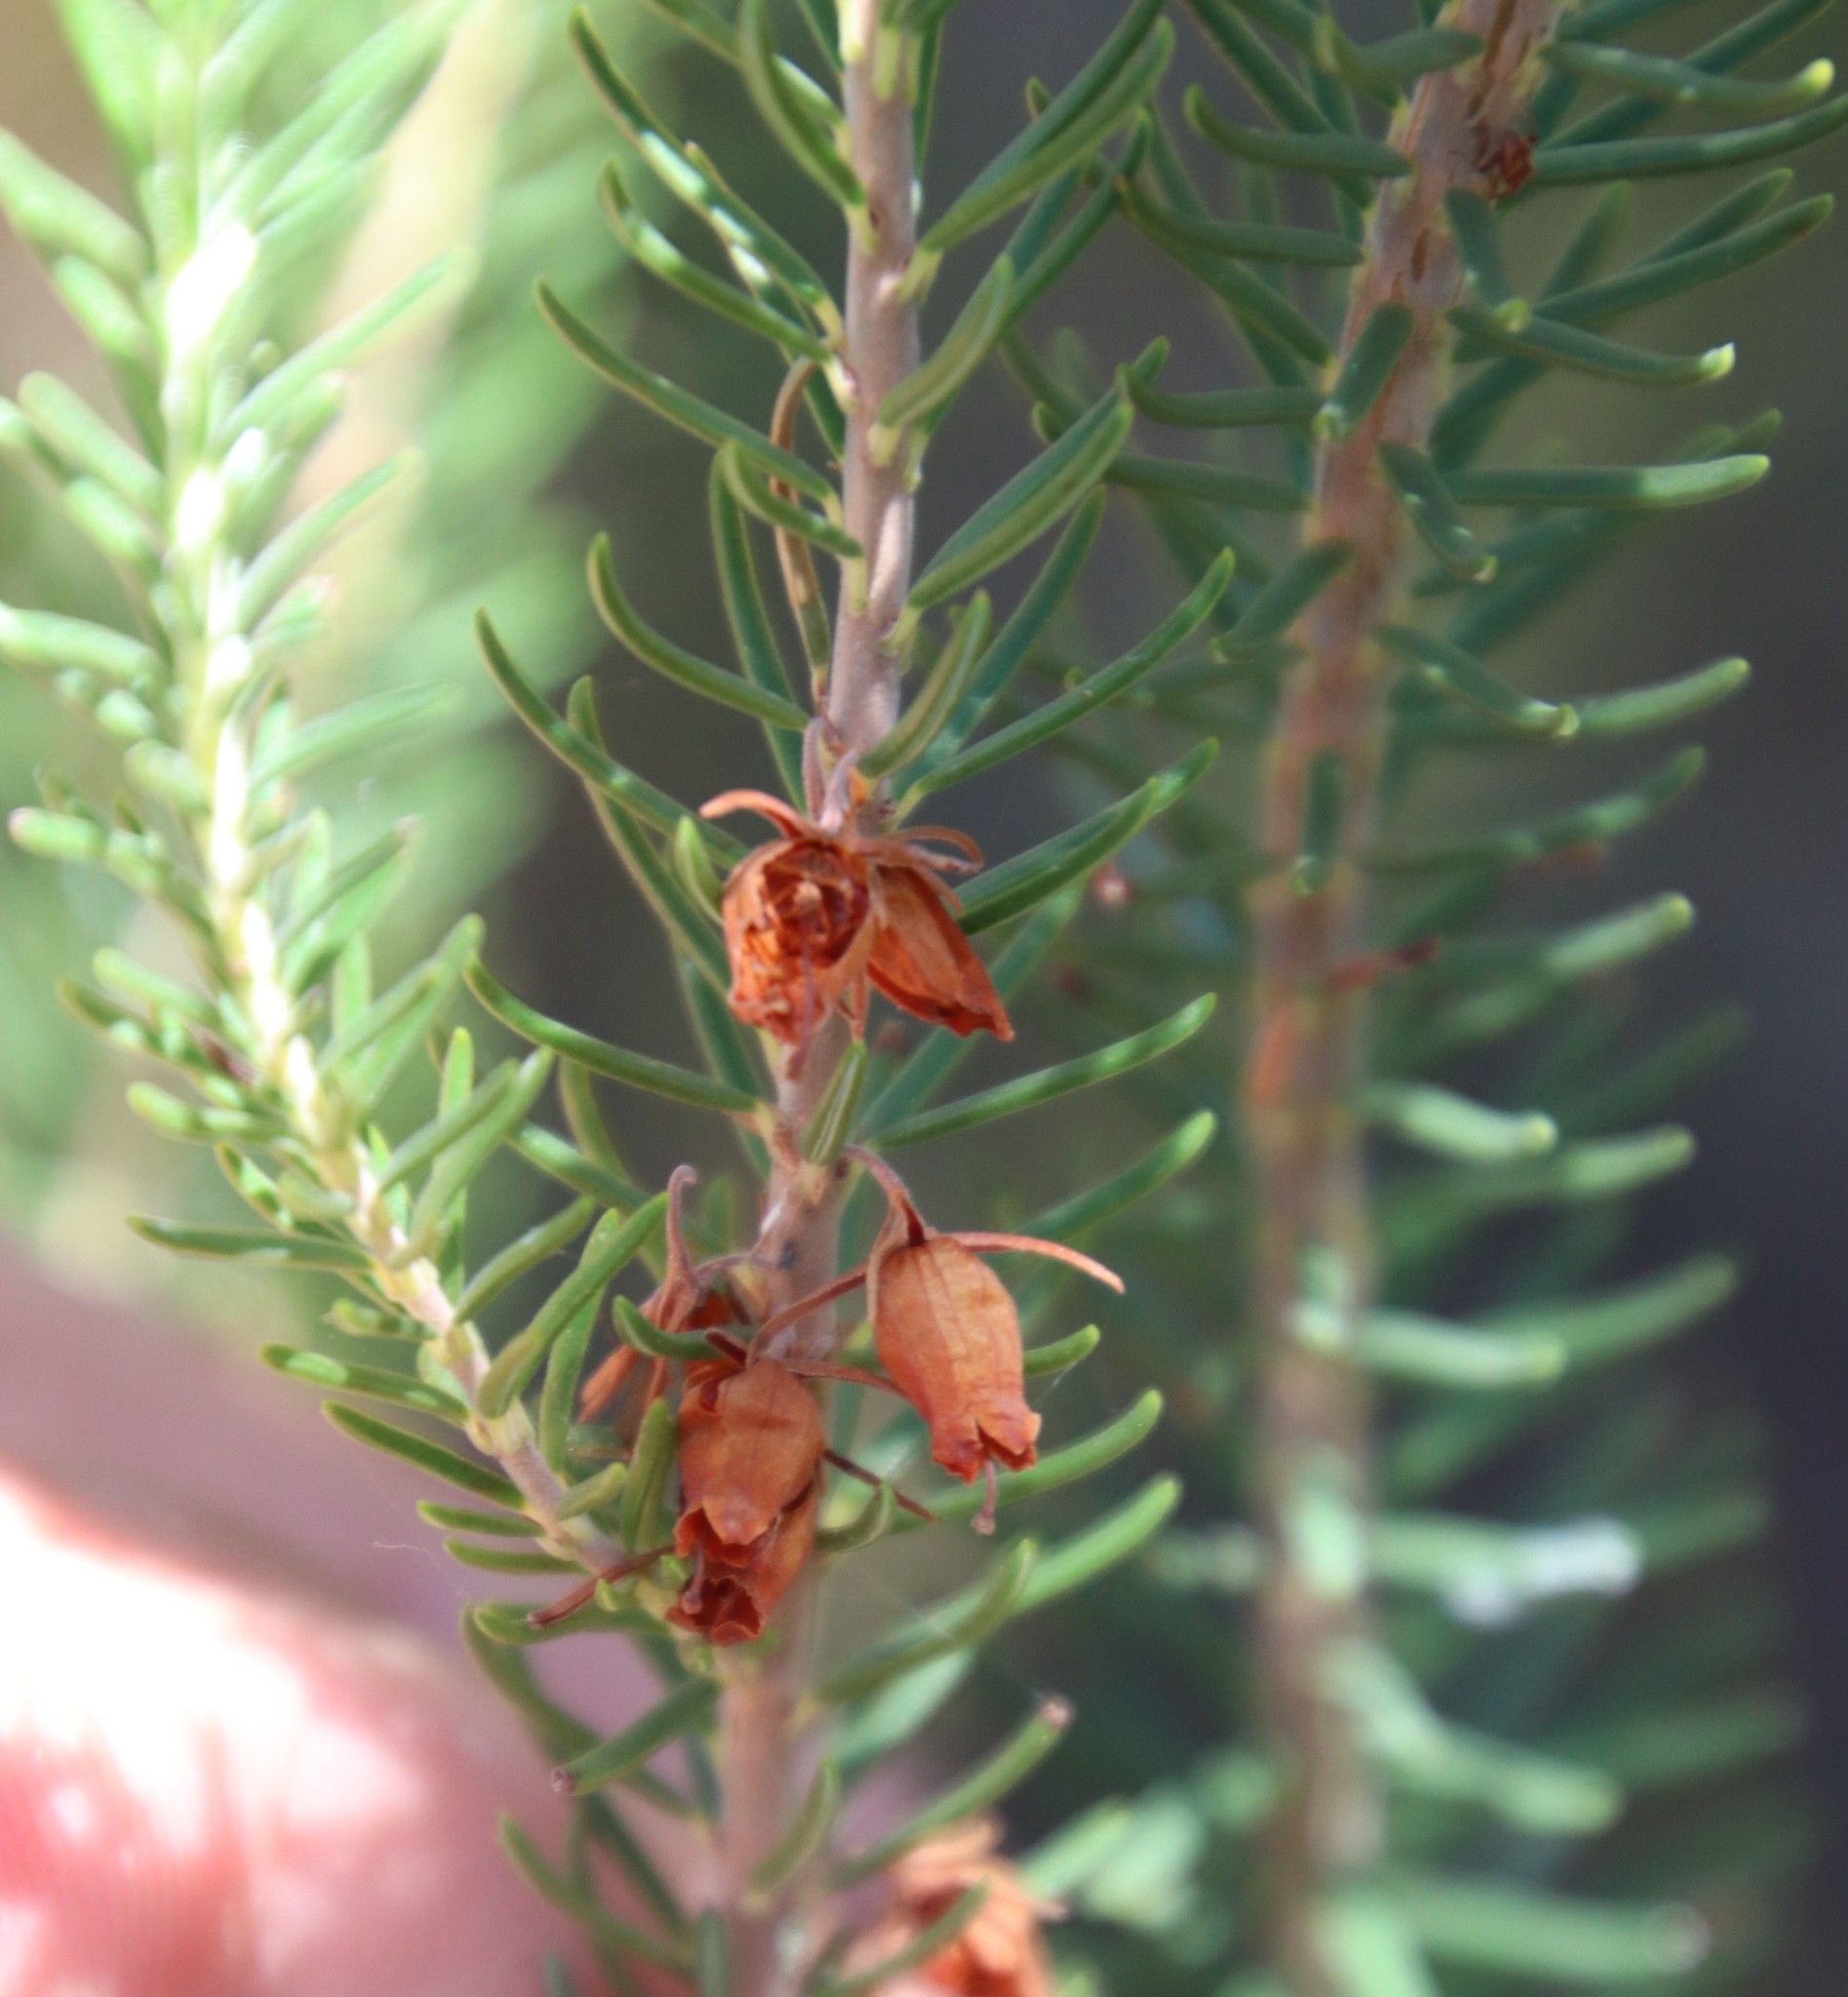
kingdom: Plantae
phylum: Tracheophyta
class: Magnoliopsida
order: Ericales
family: Ericaceae
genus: Erica
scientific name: Erica parilis
